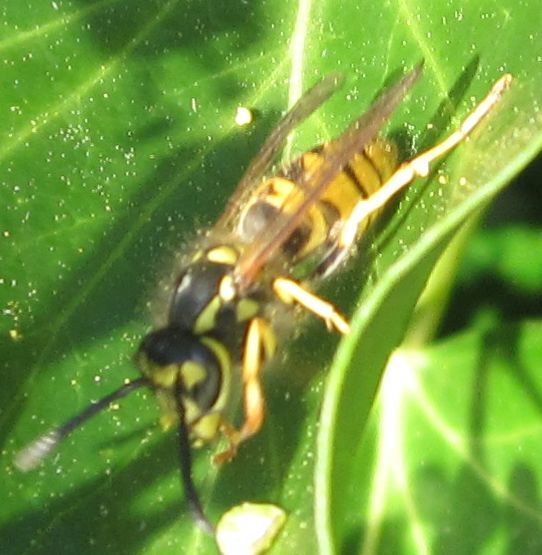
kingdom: Animalia
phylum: Arthropoda
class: Insecta
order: Hymenoptera
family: Vespidae
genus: Vespula
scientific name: Vespula germanica
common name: German wasp
